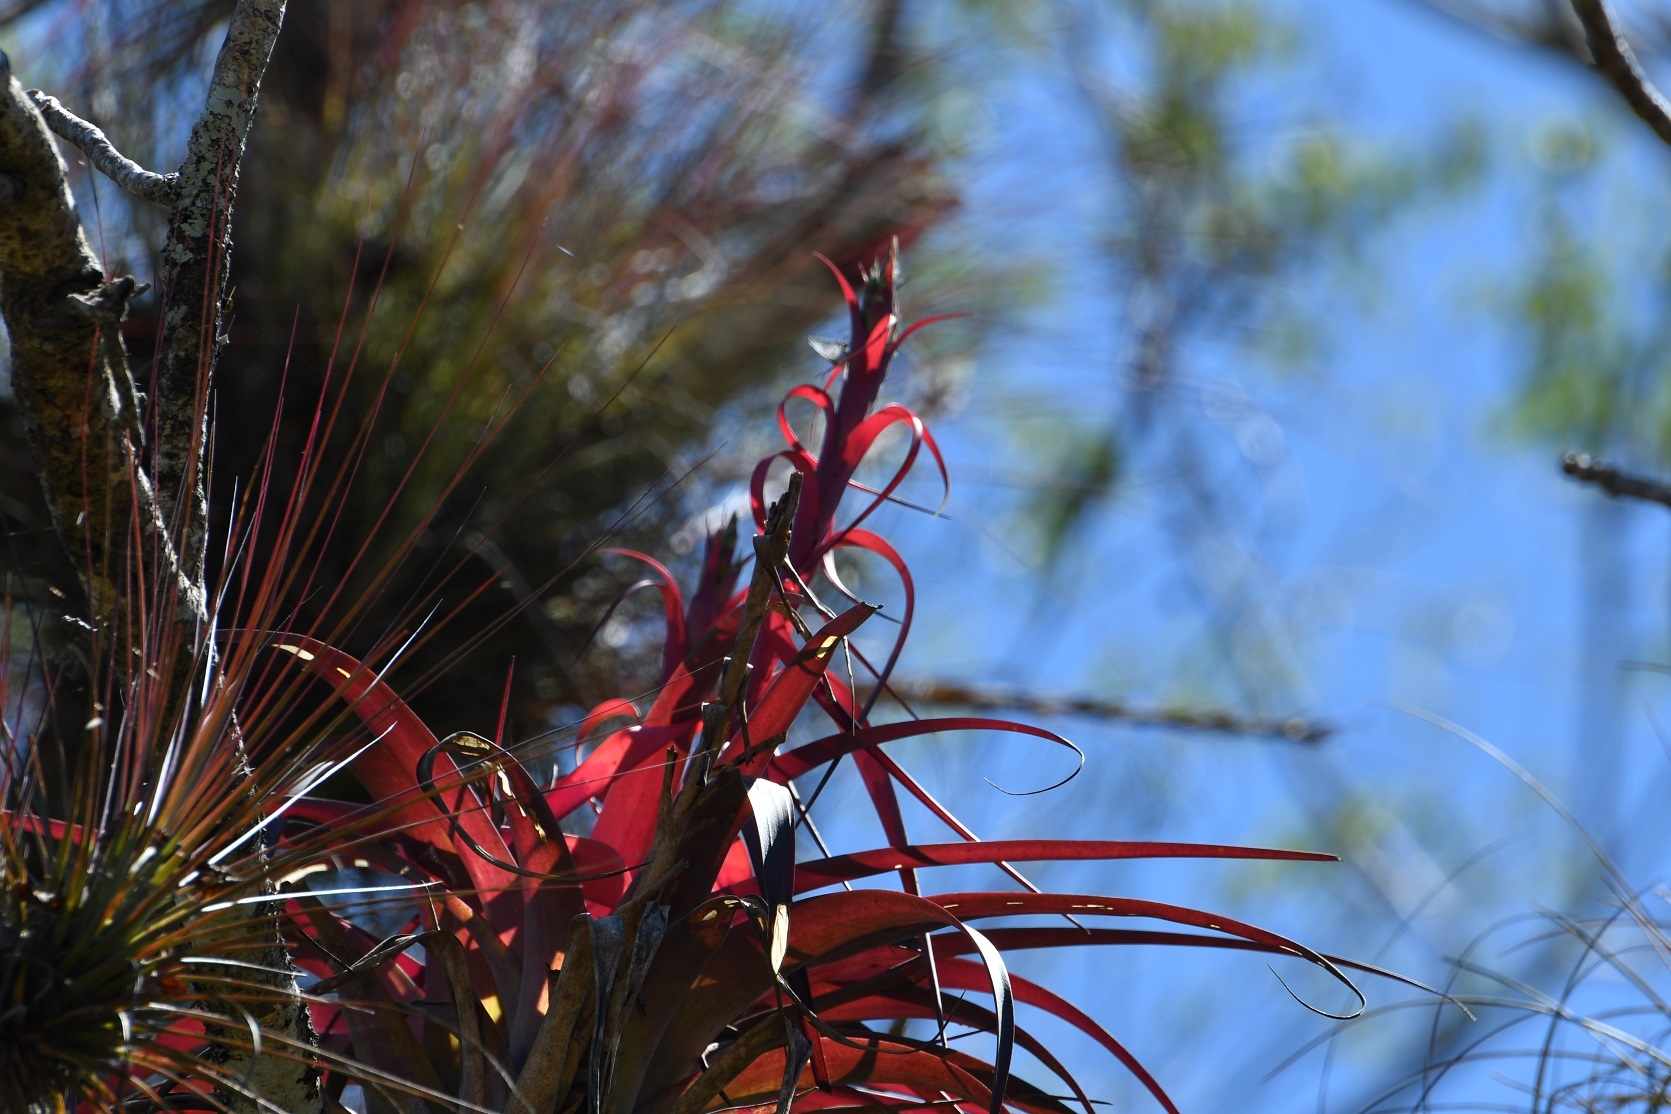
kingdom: Plantae
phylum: Tracheophyta
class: Liliopsida
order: Poales
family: Bromeliaceae
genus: Tillandsia
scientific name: Tillandsia belloensis
